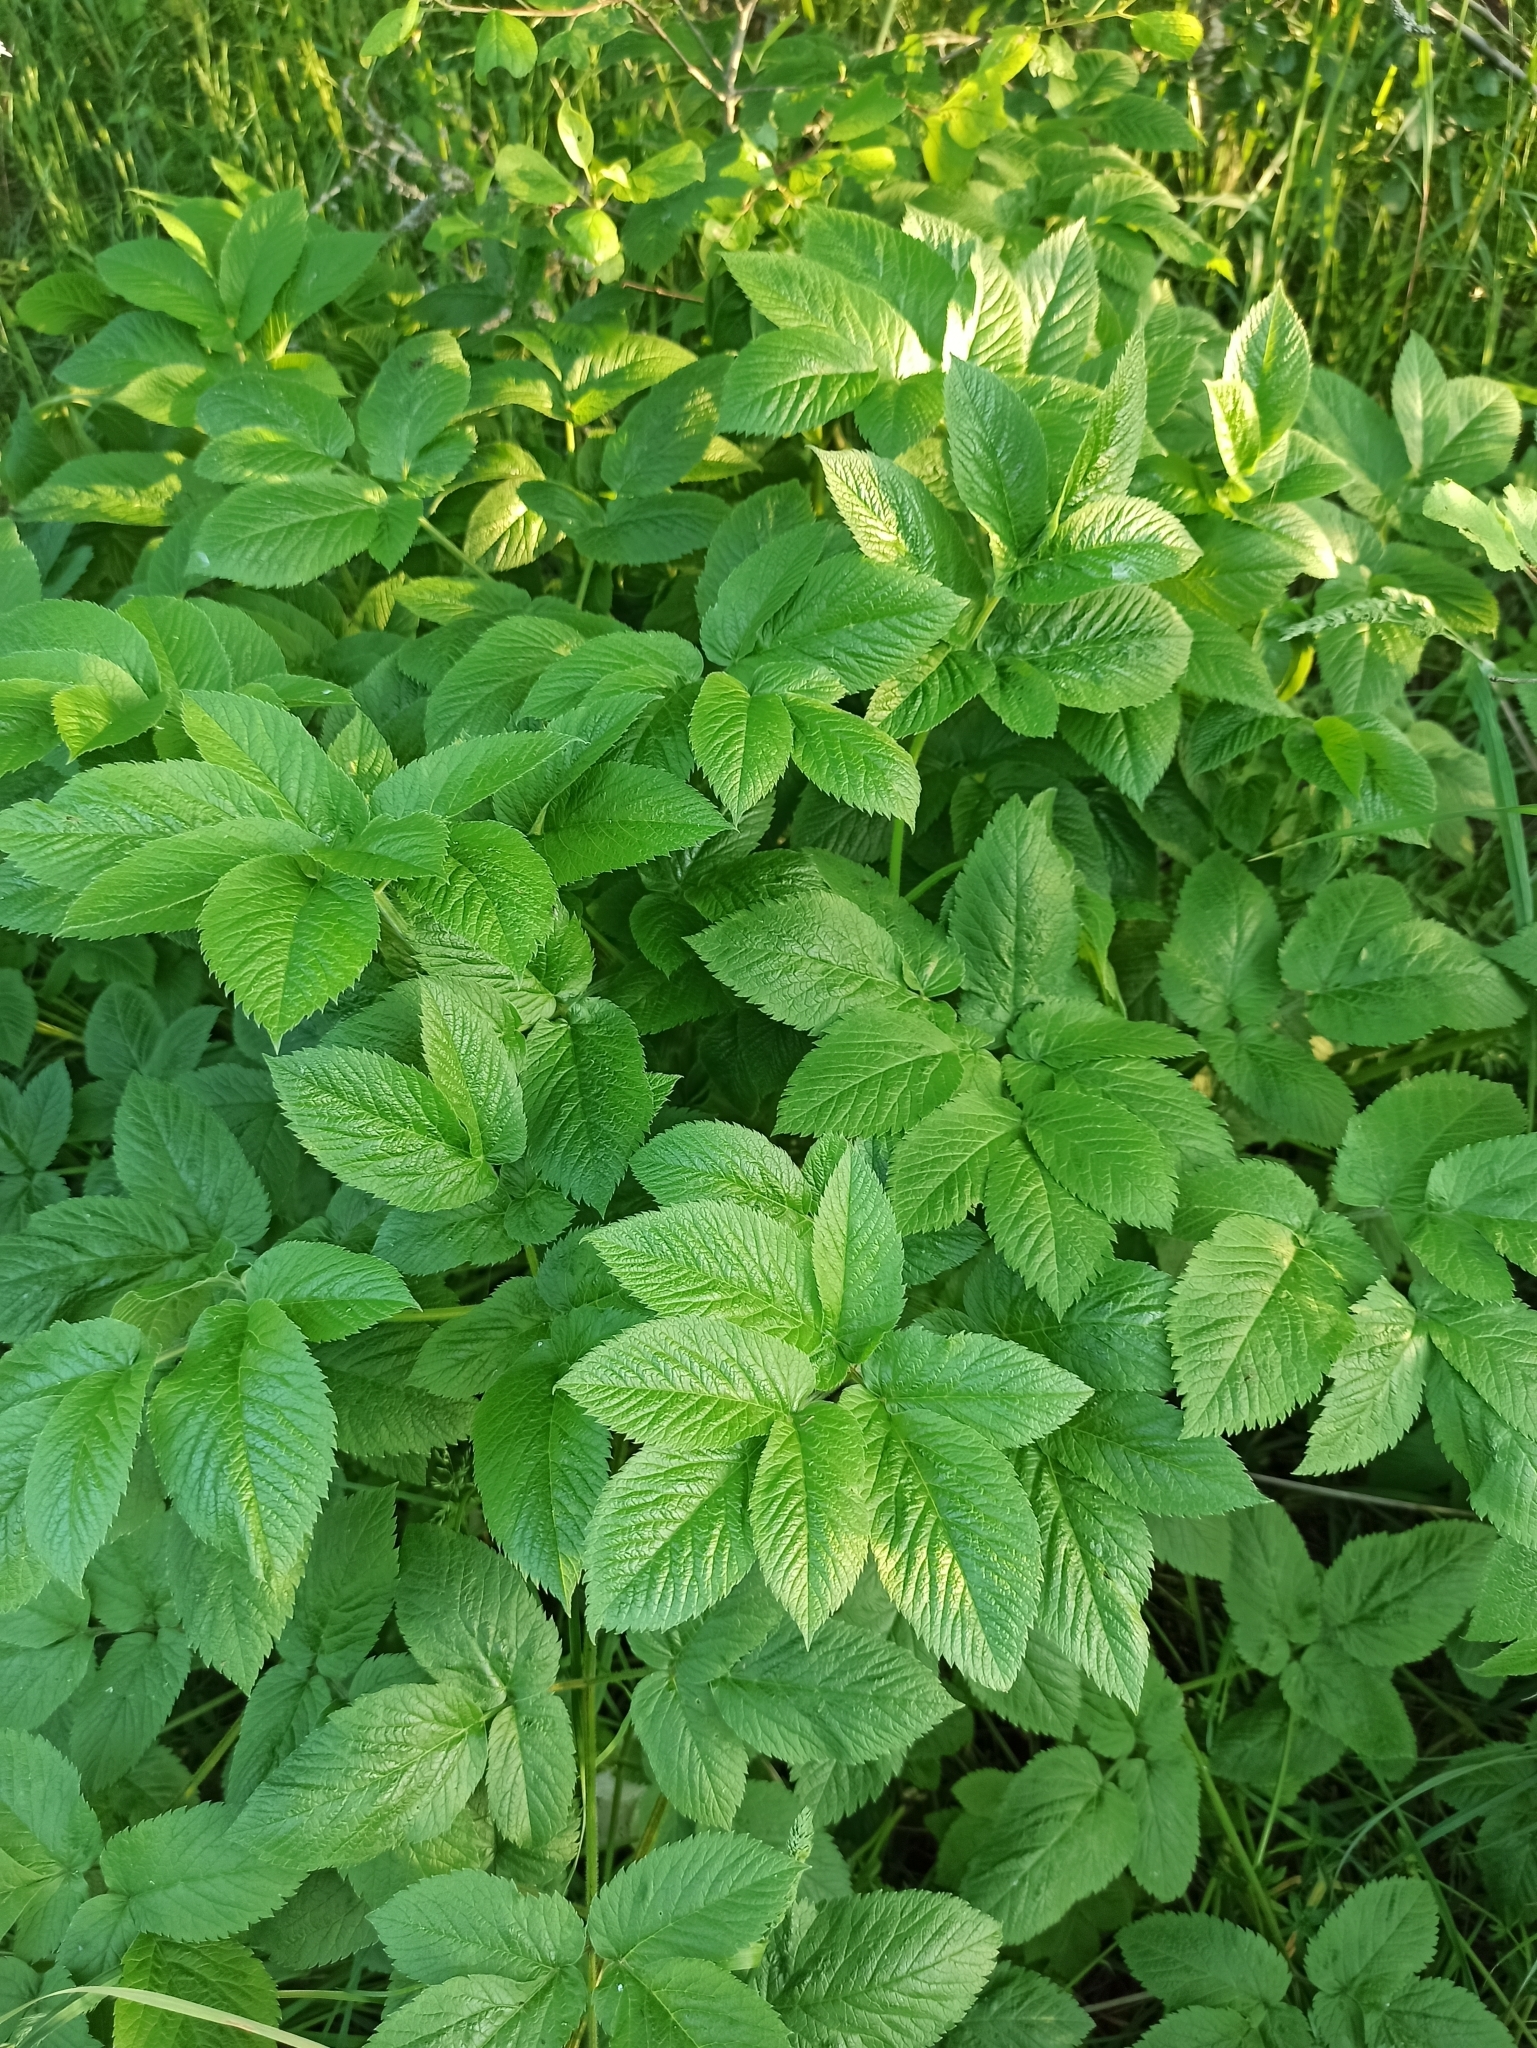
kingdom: Plantae
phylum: Tracheophyta
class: Magnoliopsida
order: Apiales
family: Apiaceae
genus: Chaerophyllum
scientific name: Chaerophyllum aromaticum
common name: Broadleaf chervil
